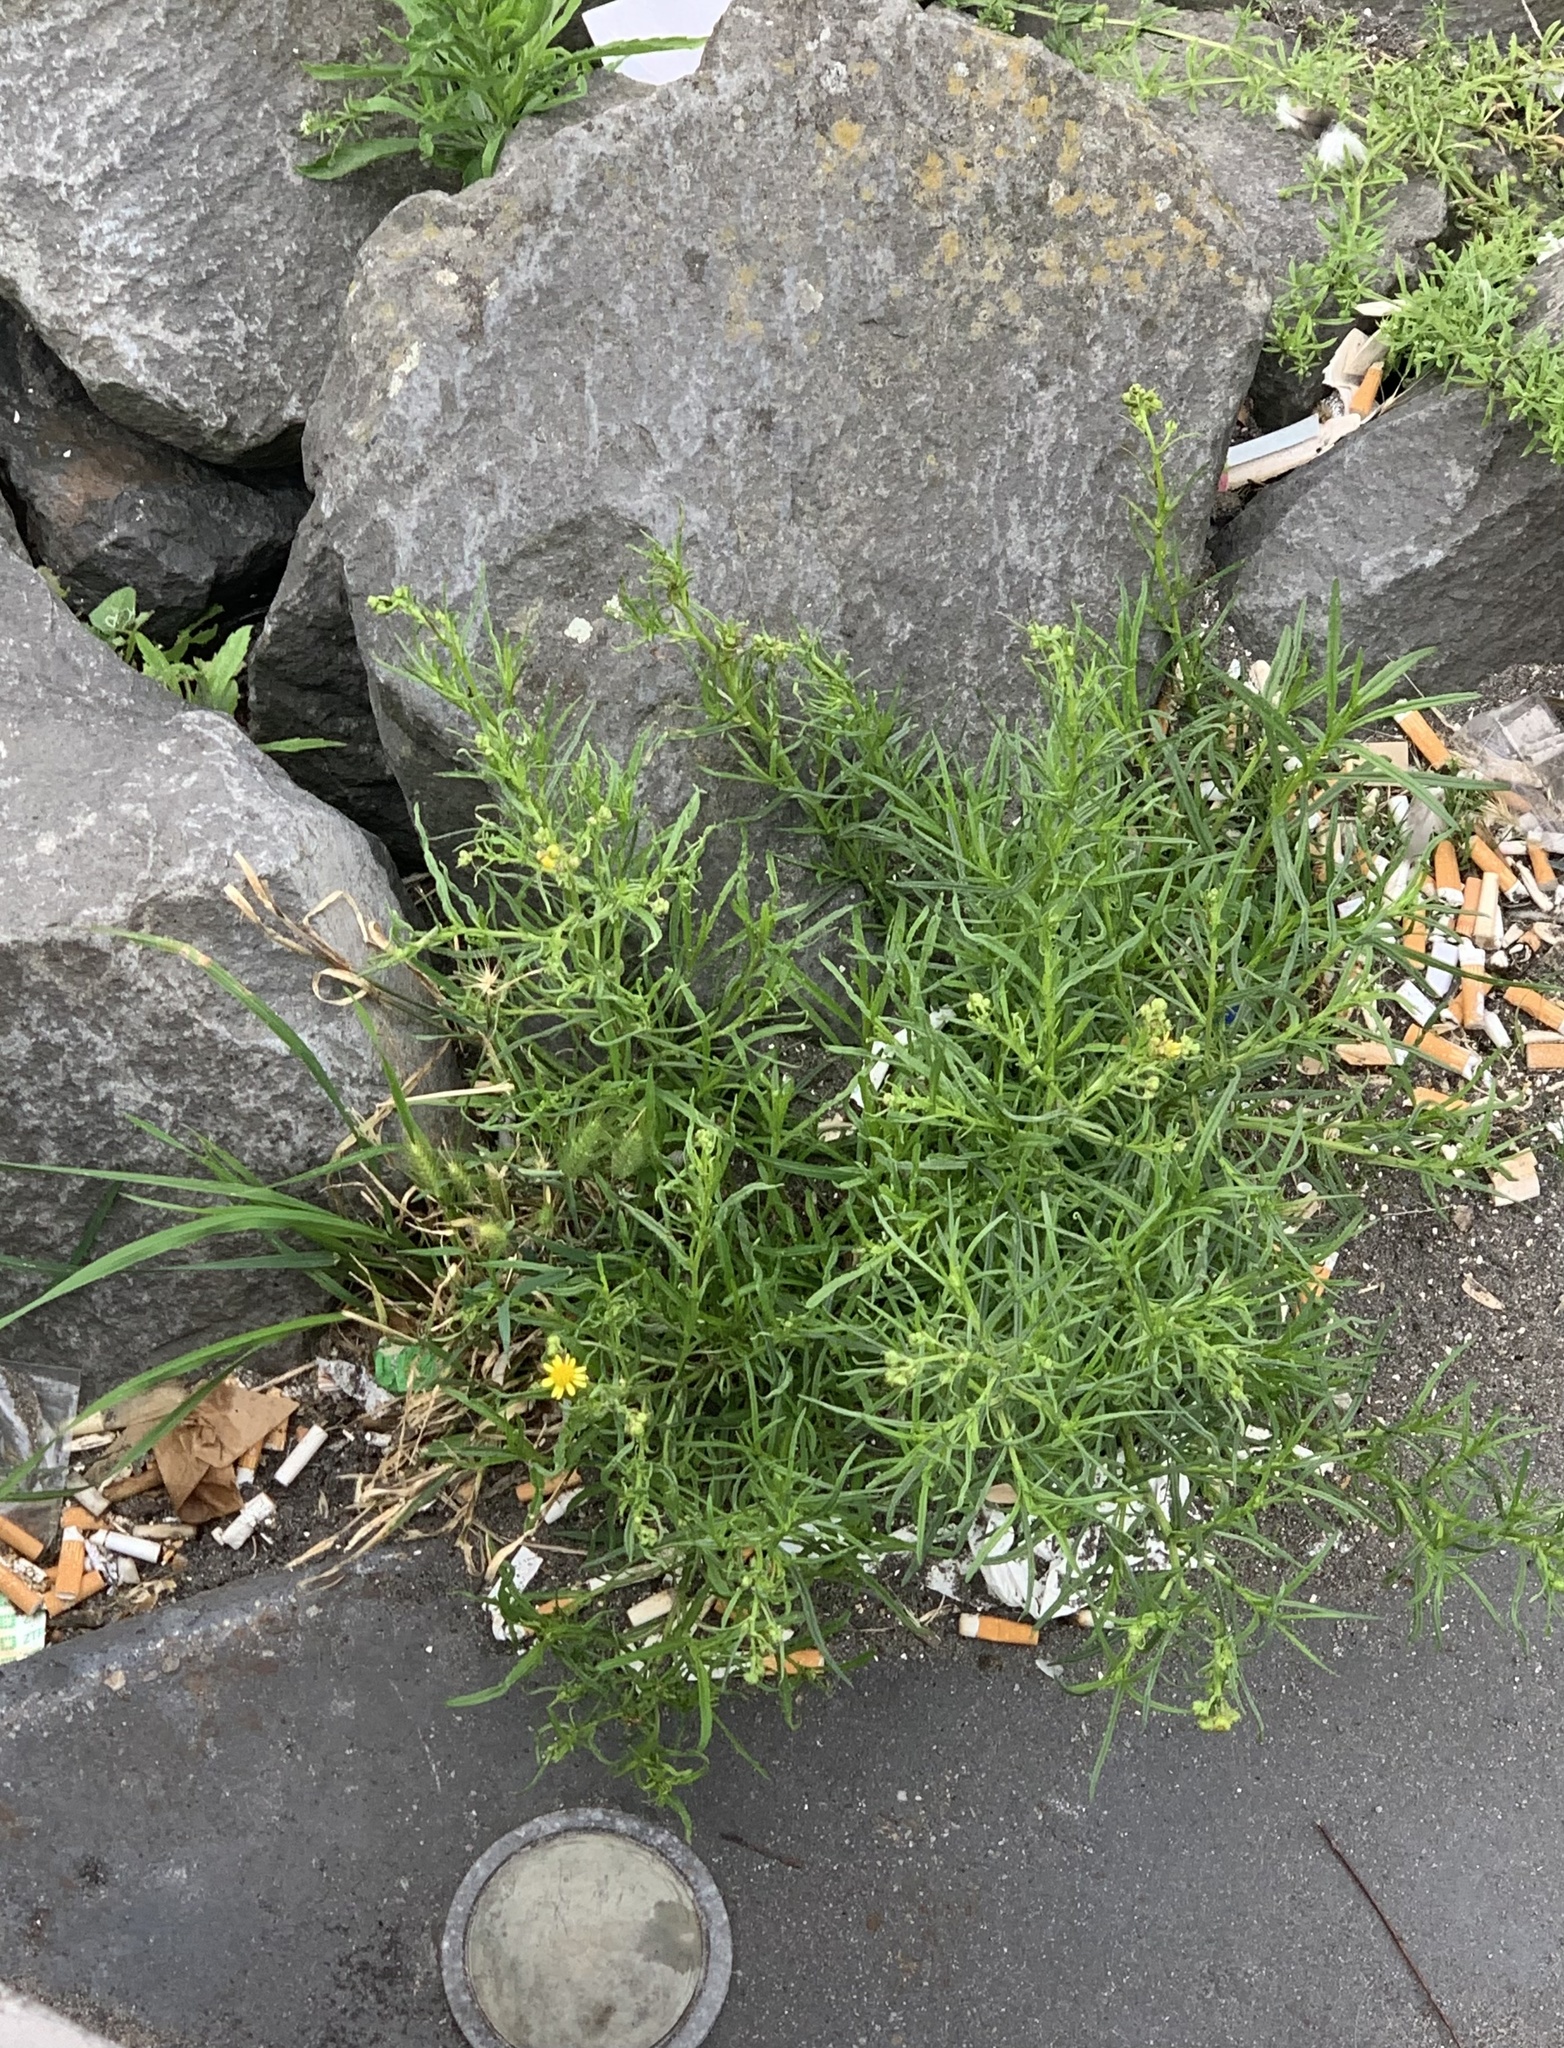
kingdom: Plantae
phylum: Tracheophyta
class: Magnoliopsida
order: Asterales
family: Asteraceae
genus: Senecio
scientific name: Senecio inaequidens
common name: Narrow-leaved ragwort
